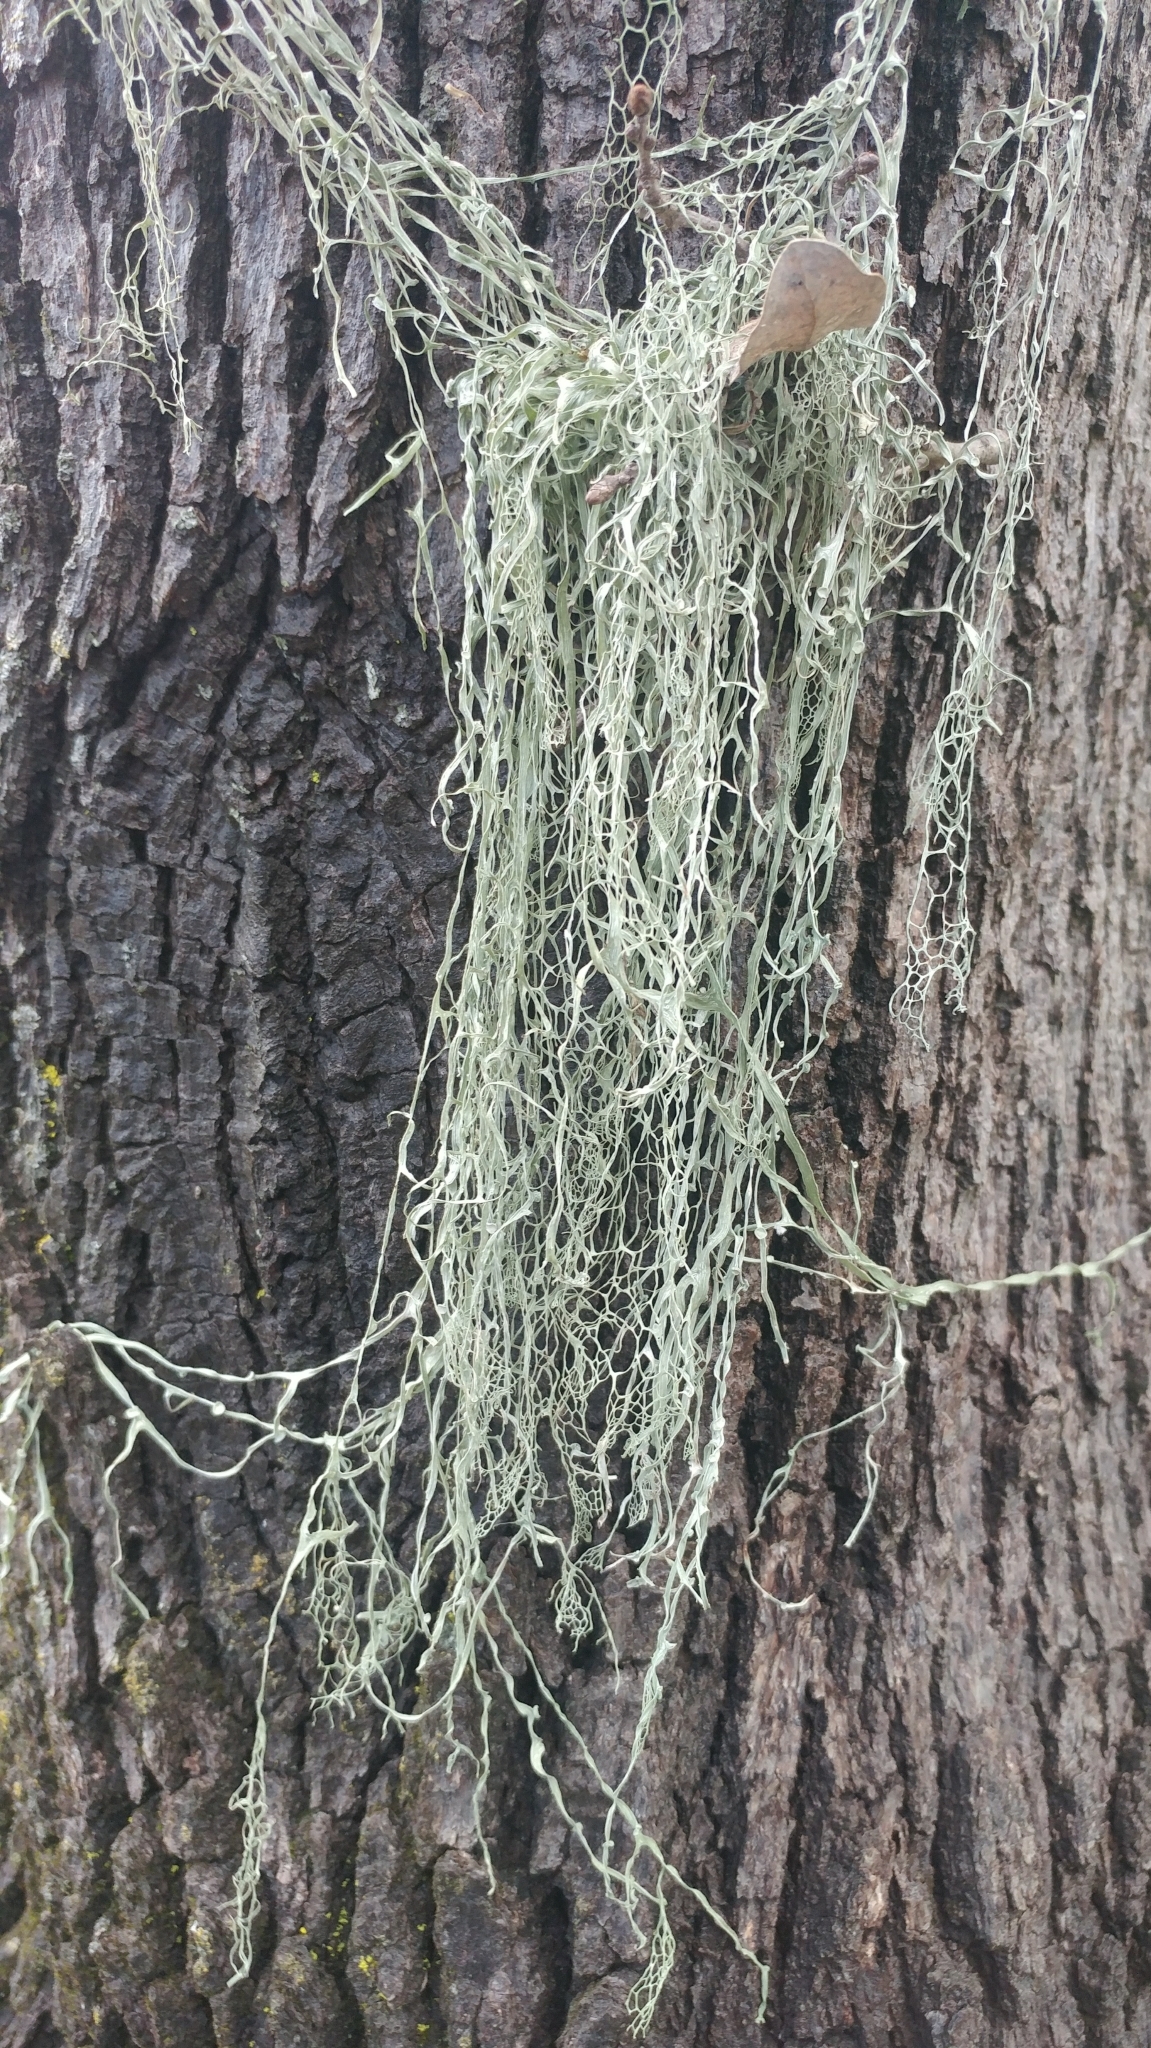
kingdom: Fungi
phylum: Ascomycota
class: Lecanoromycetes
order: Lecanorales
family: Ramalinaceae
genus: Ramalina
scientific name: Ramalina menziesii
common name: Lace lichen
